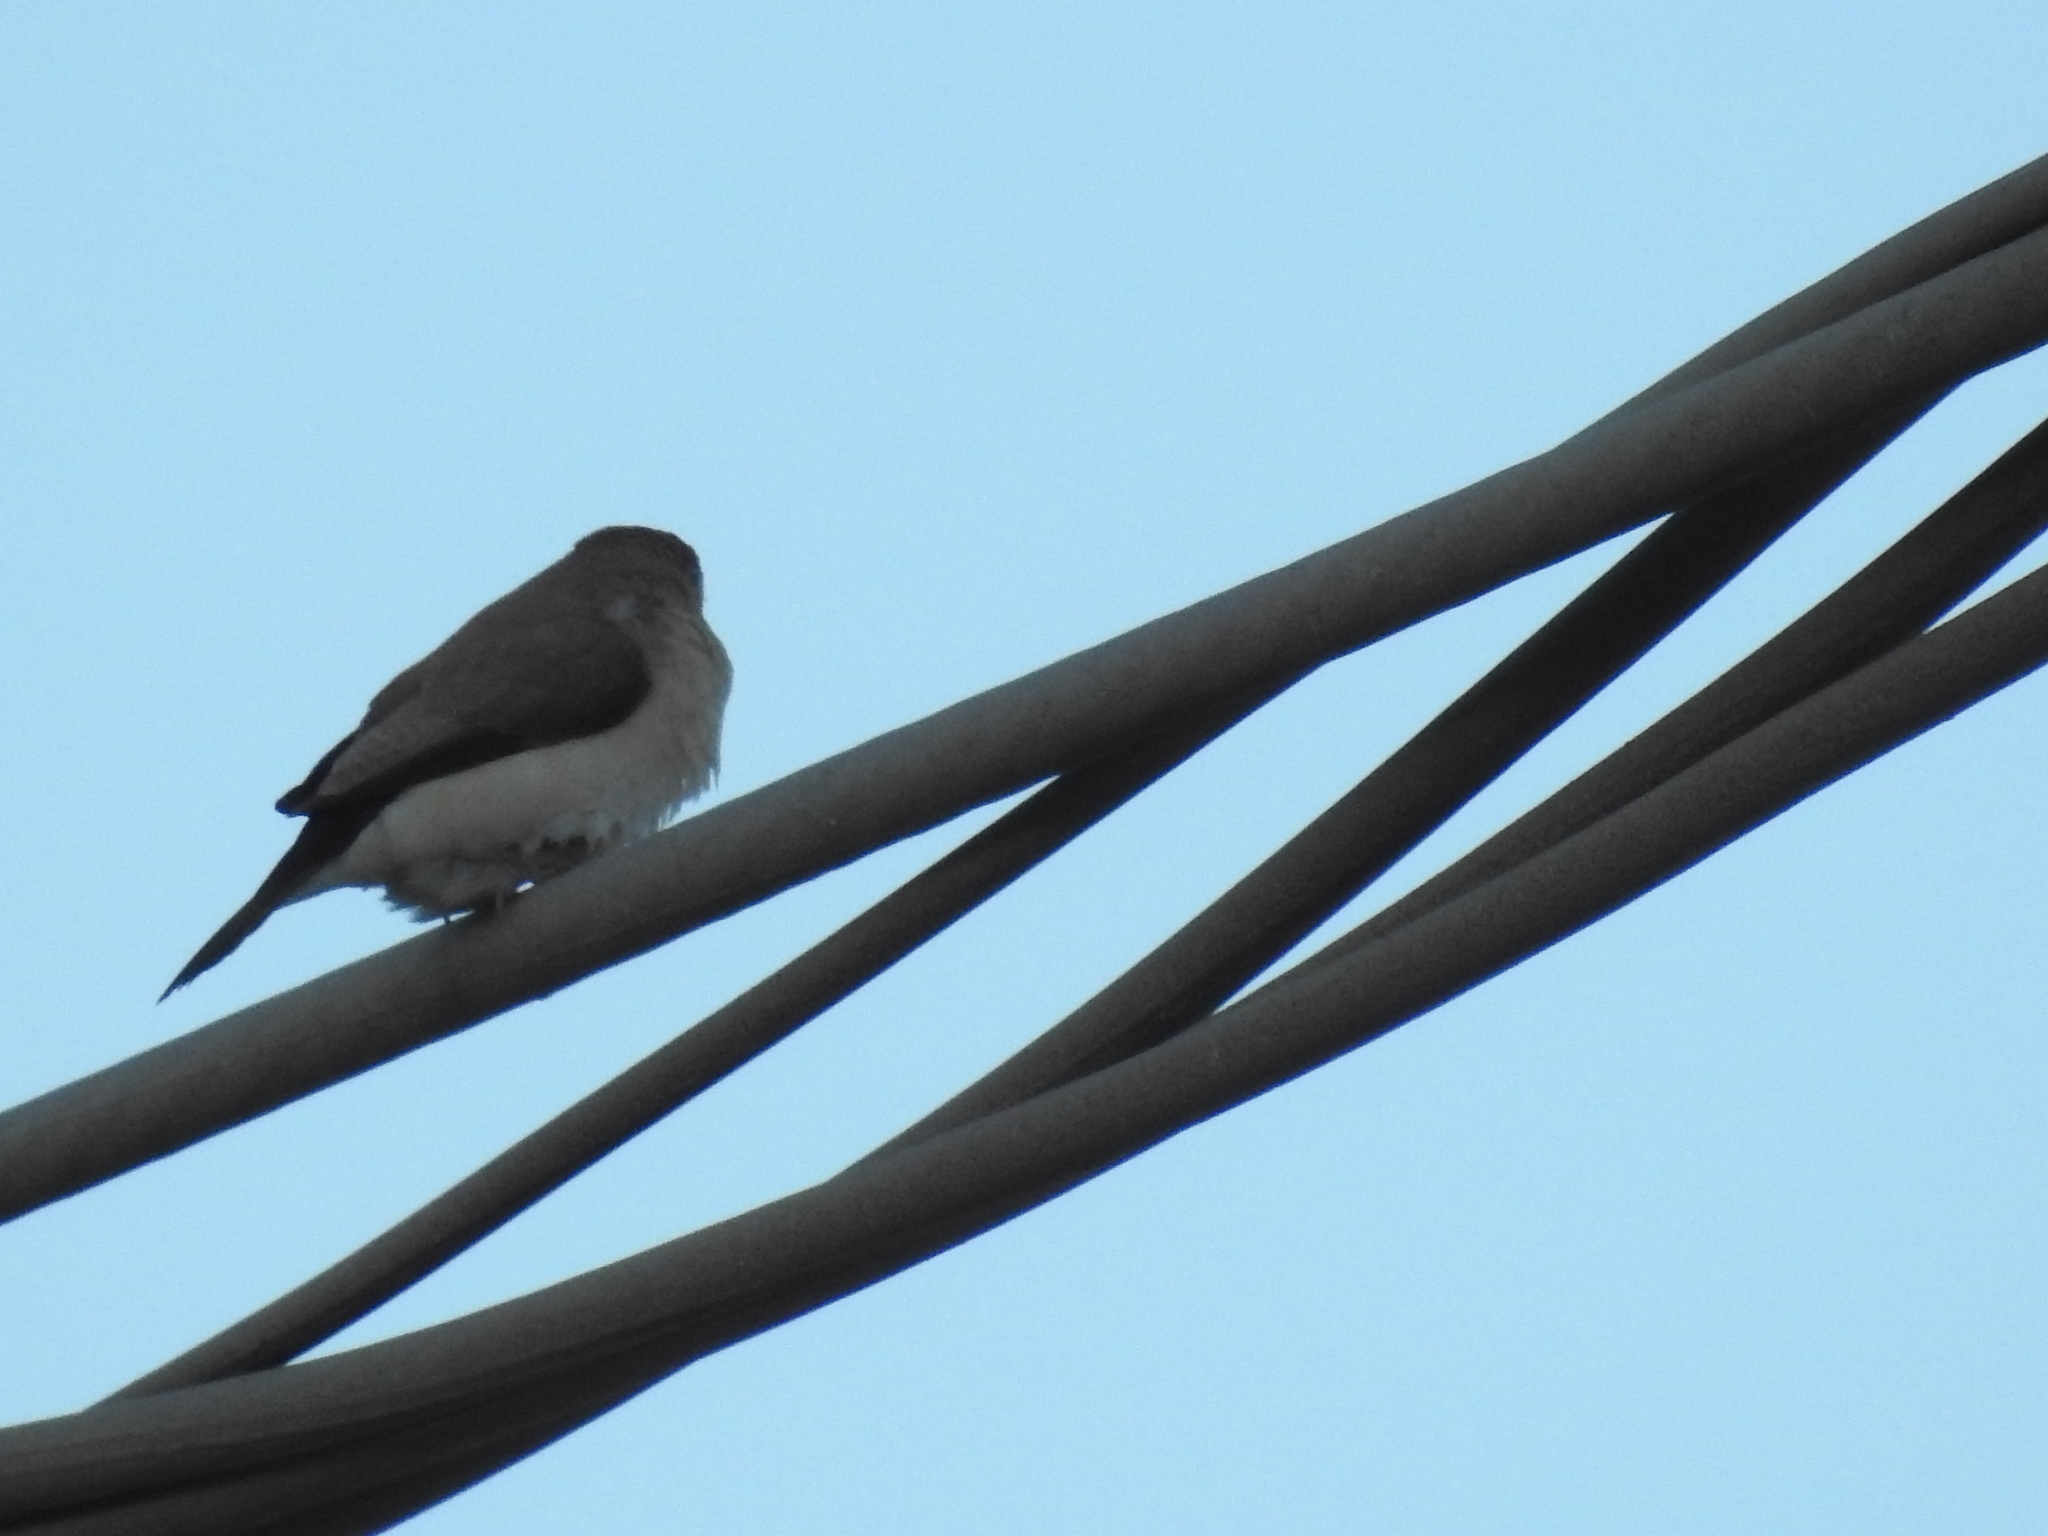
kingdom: Animalia
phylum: Chordata
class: Aves
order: Passeriformes
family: Estrildidae
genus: Euodice
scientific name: Euodice cantans
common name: African silverbill
